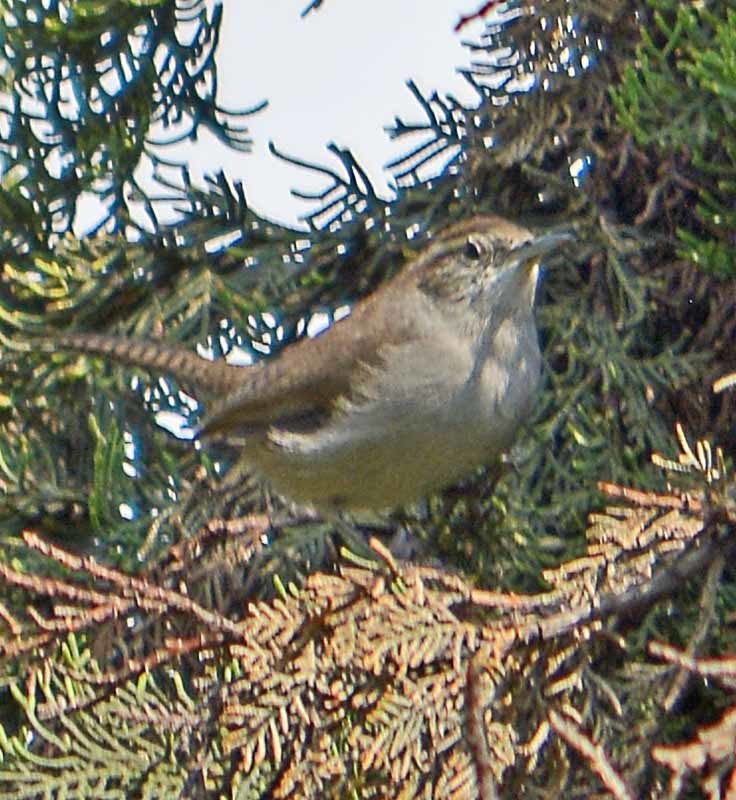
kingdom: Animalia
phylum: Chordata
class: Aves
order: Passeriformes
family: Troglodytidae
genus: Thryomanes
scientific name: Thryomanes bewickii
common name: Bewick's wren
